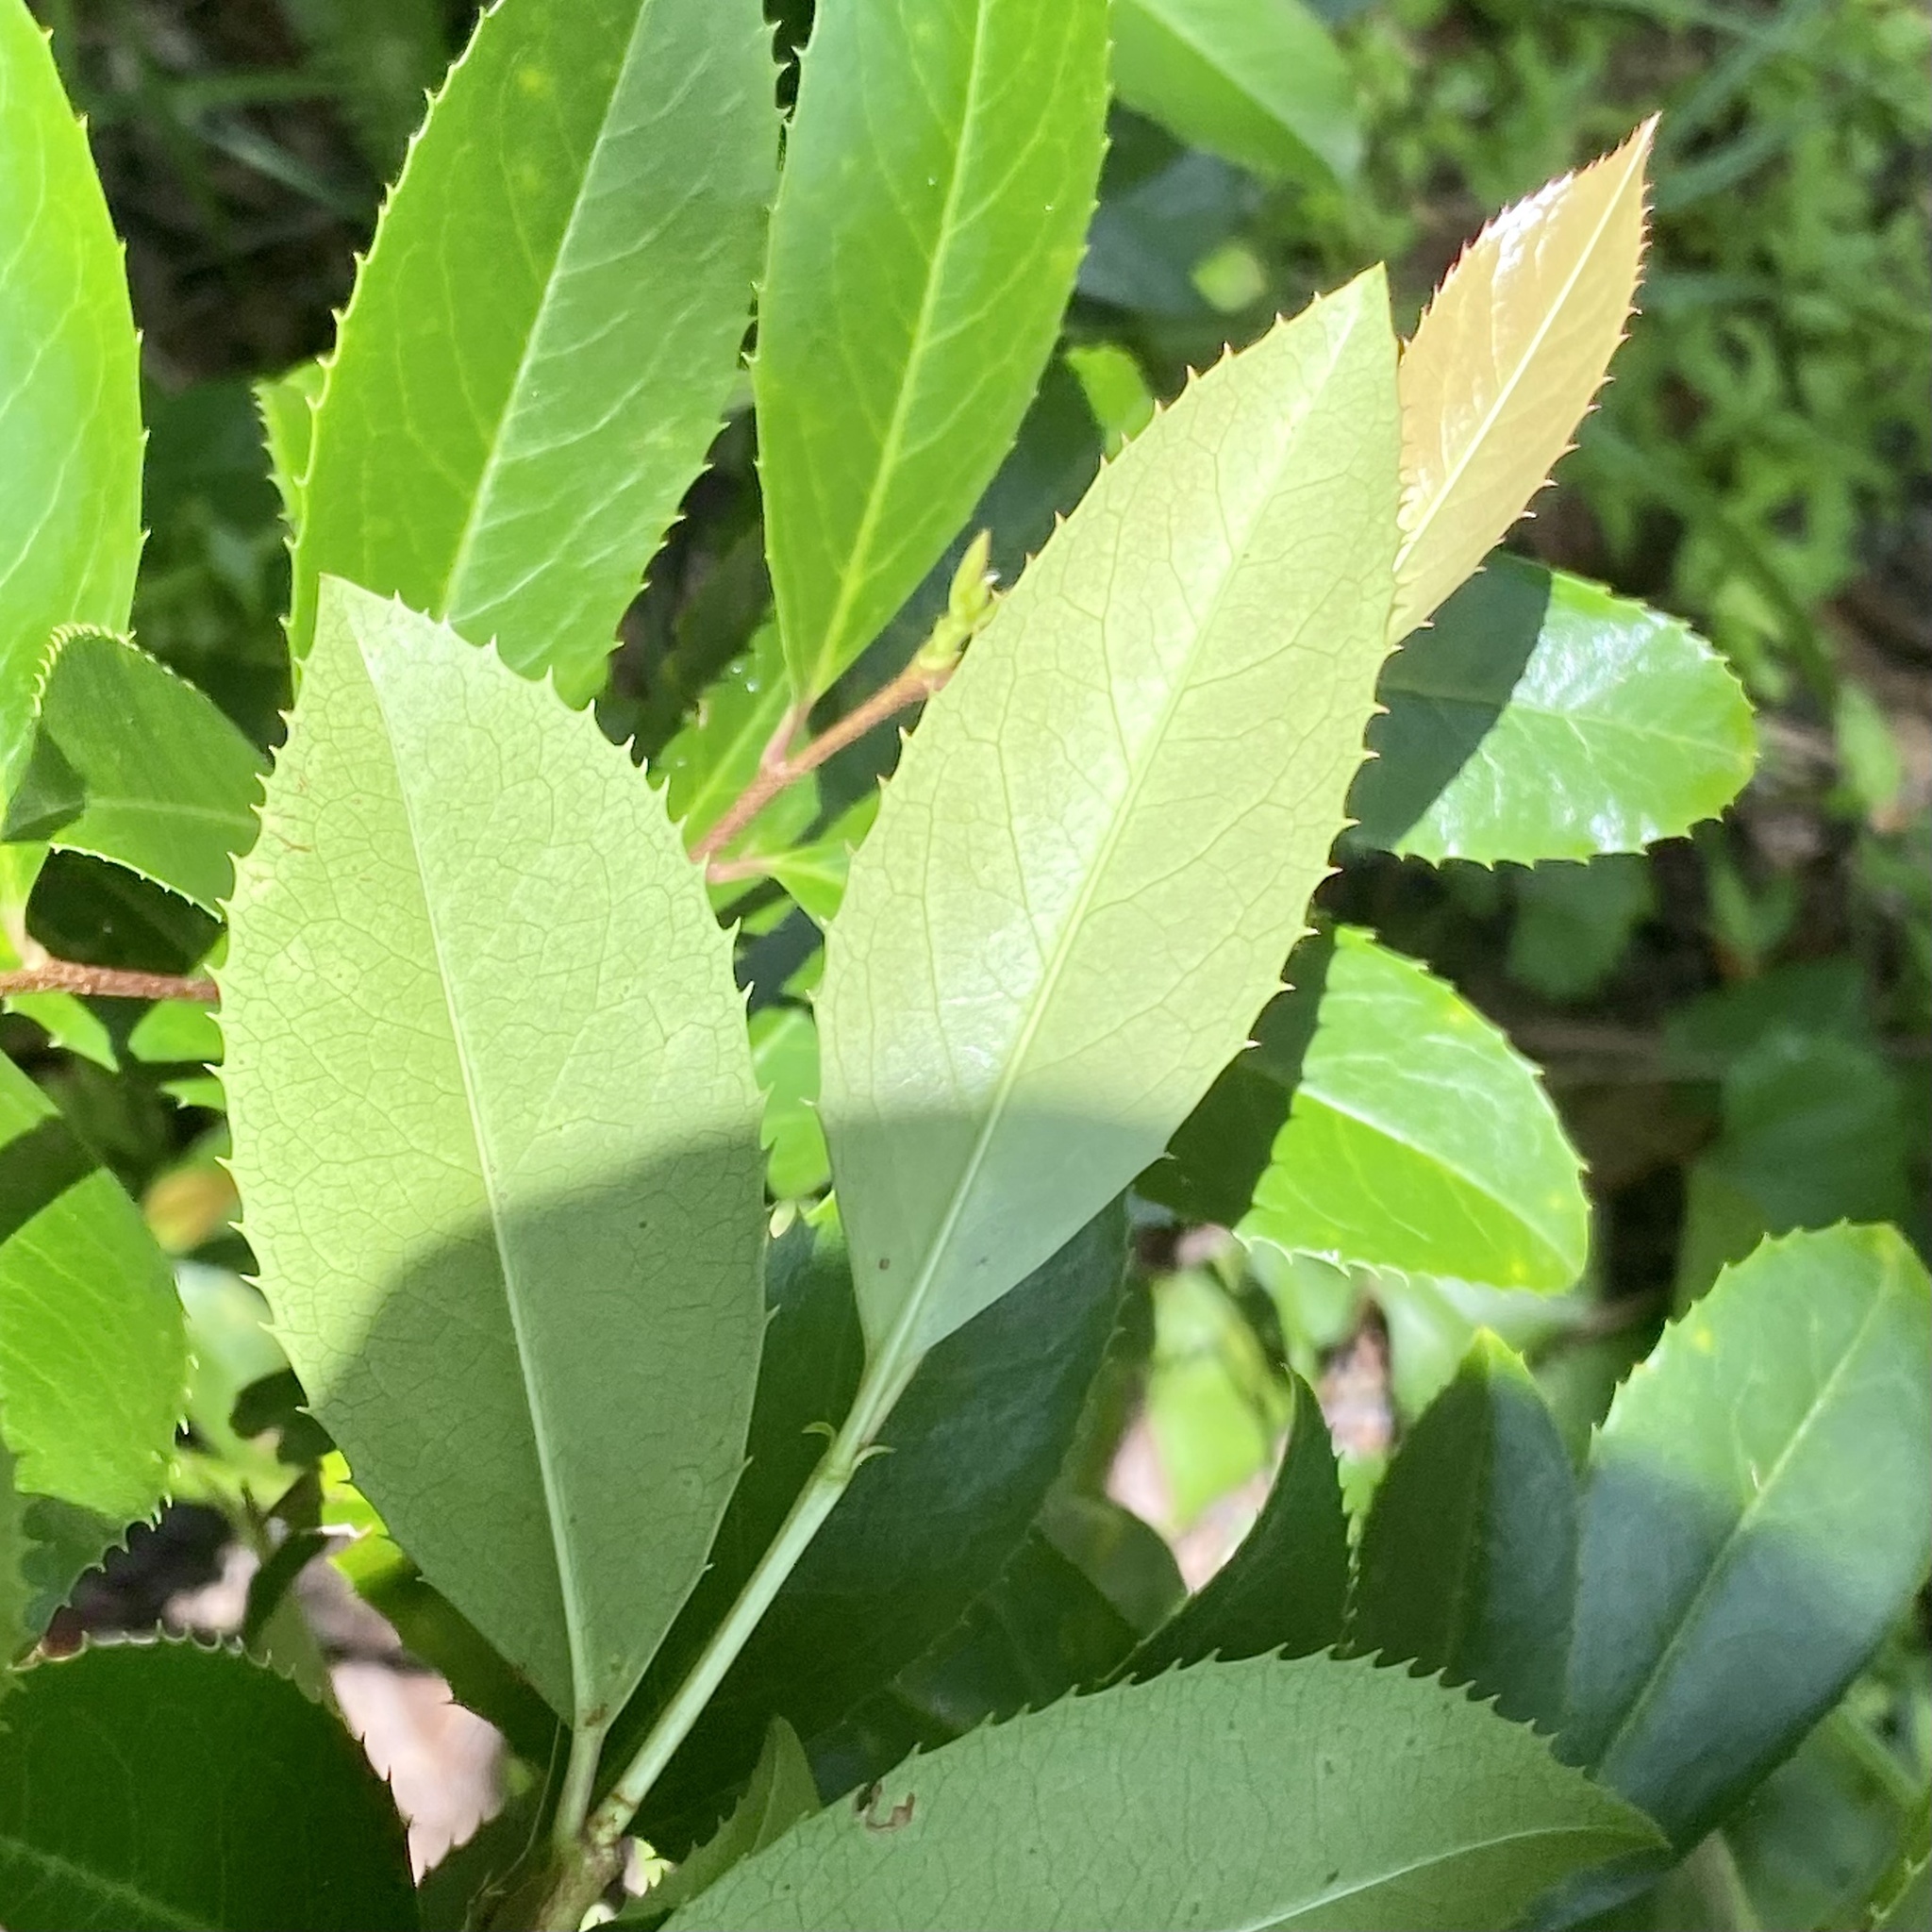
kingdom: Plantae
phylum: Tracheophyta
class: Magnoliopsida
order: Rosales
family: Rosaceae
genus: Prunus
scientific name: Prunus caroliniana
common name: Carolina laurel cherry
